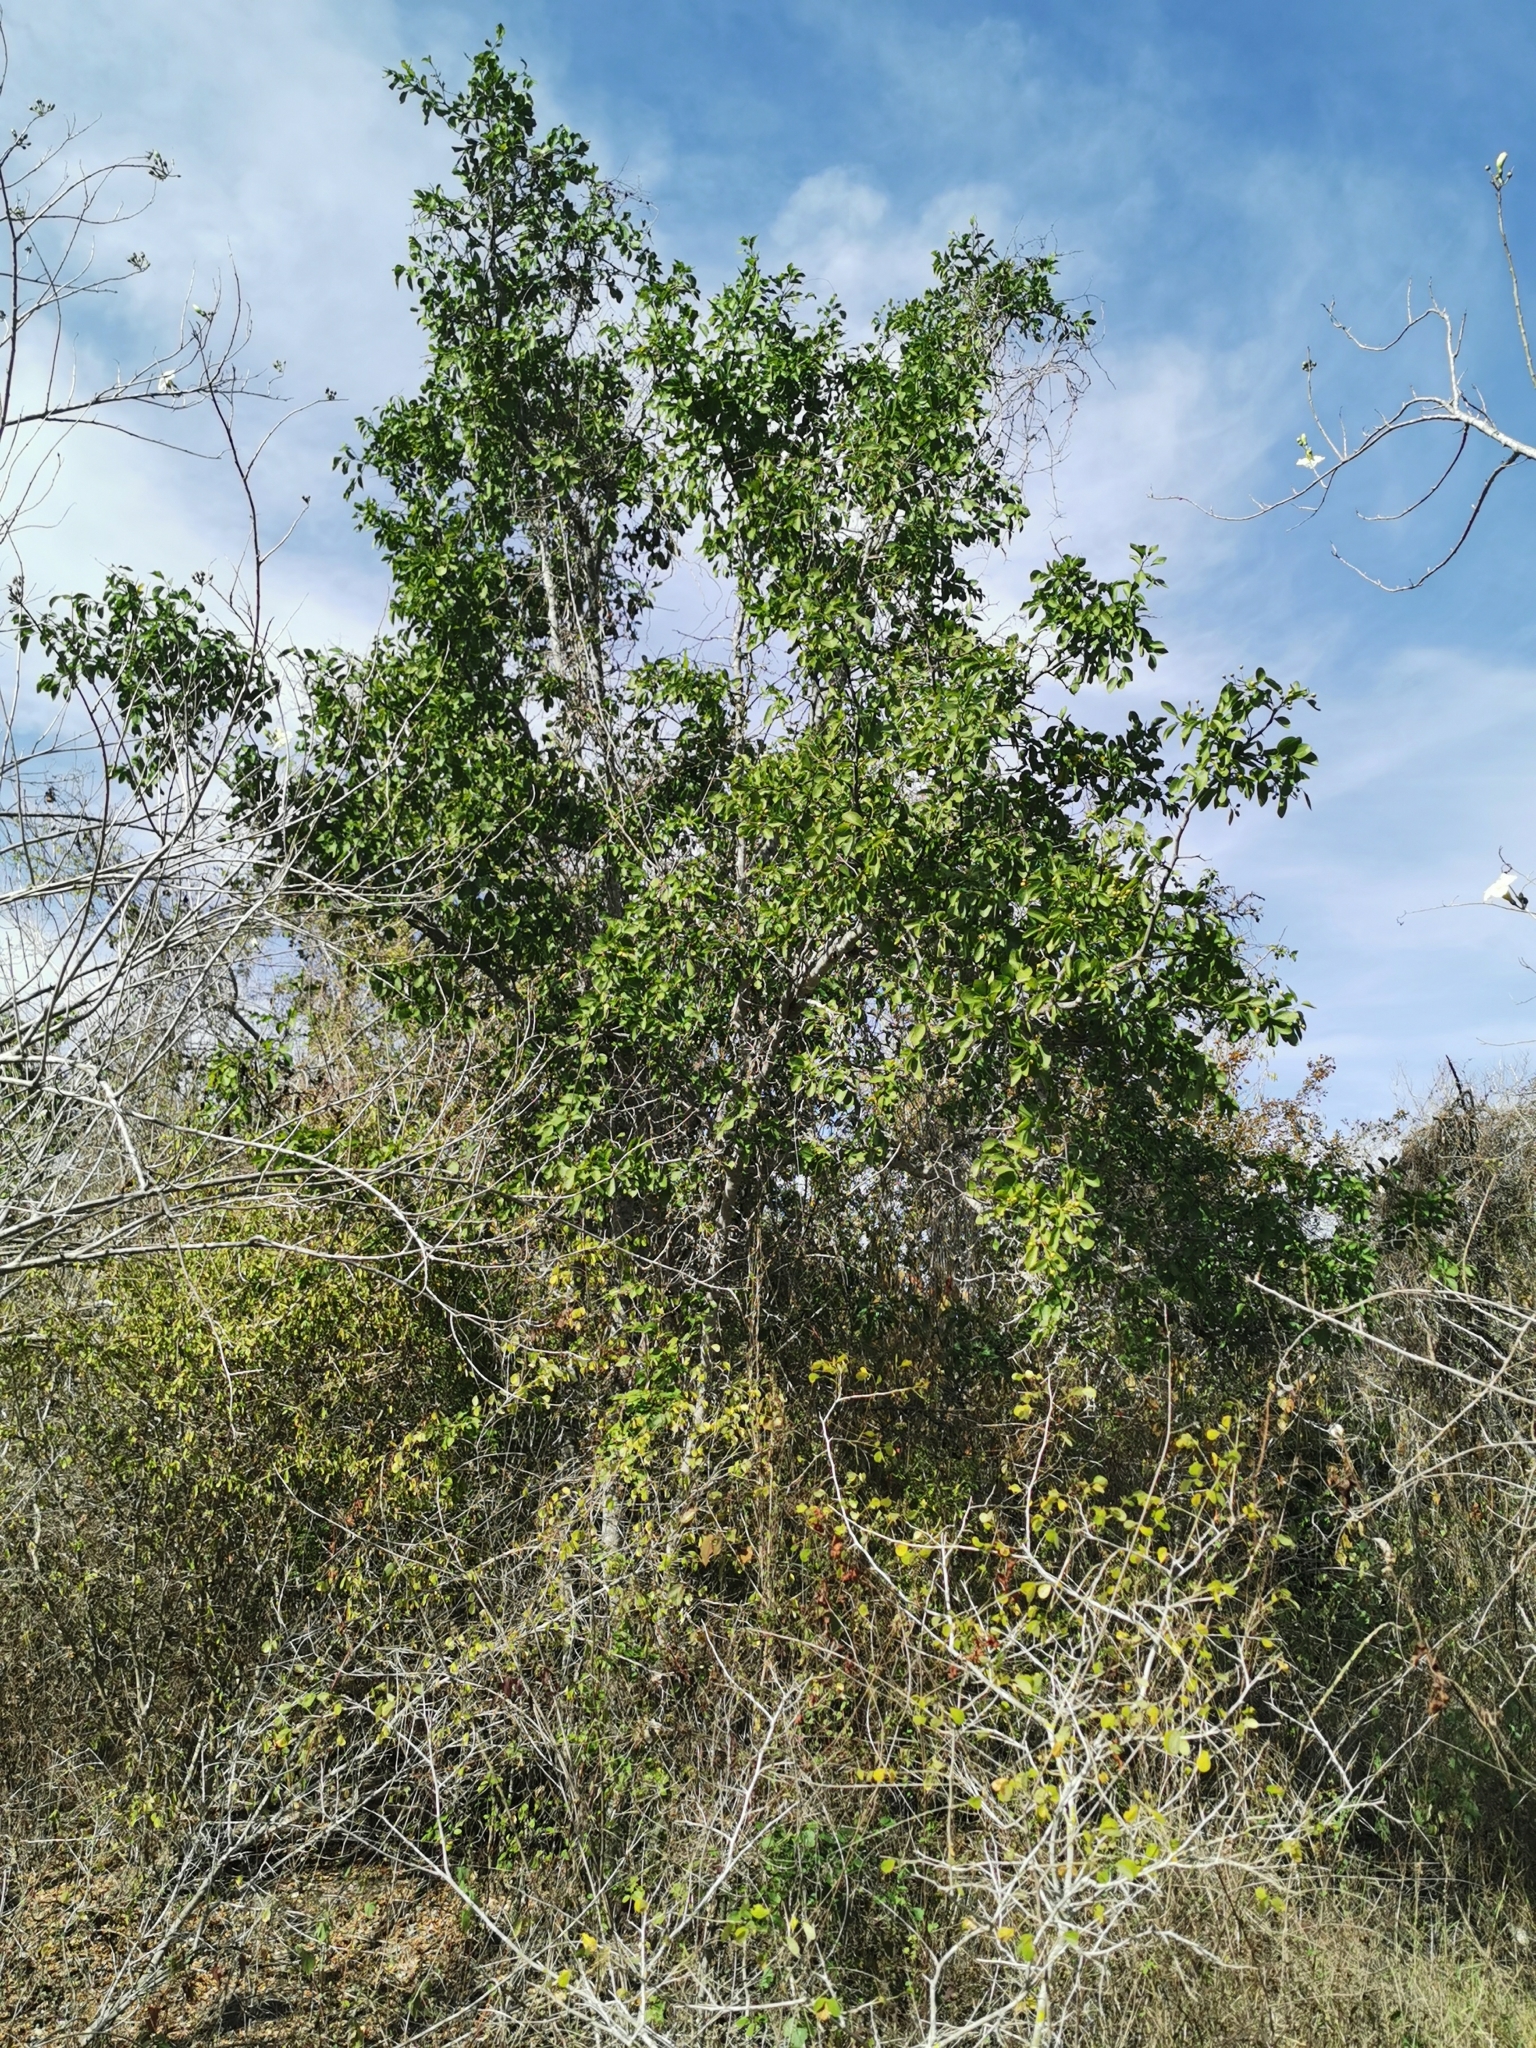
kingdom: Plantae
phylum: Tracheophyta
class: Magnoliopsida
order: Rosales
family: Rhamnaceae
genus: Sarcomphalus
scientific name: Sarcomphalus amole
